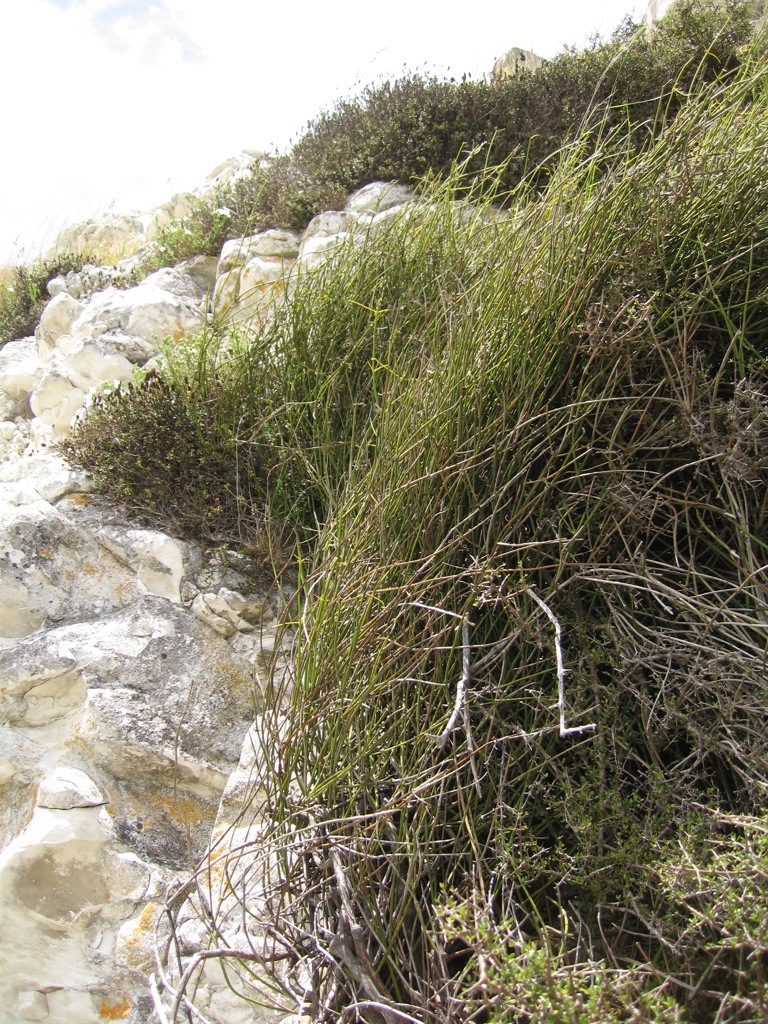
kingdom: Plantae
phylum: Tracheophyta
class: Magnoliopsida
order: Ranunculales
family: Ranunculaceae
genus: Clematis
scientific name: Clematis afoliata
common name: Rush-stem clematis
